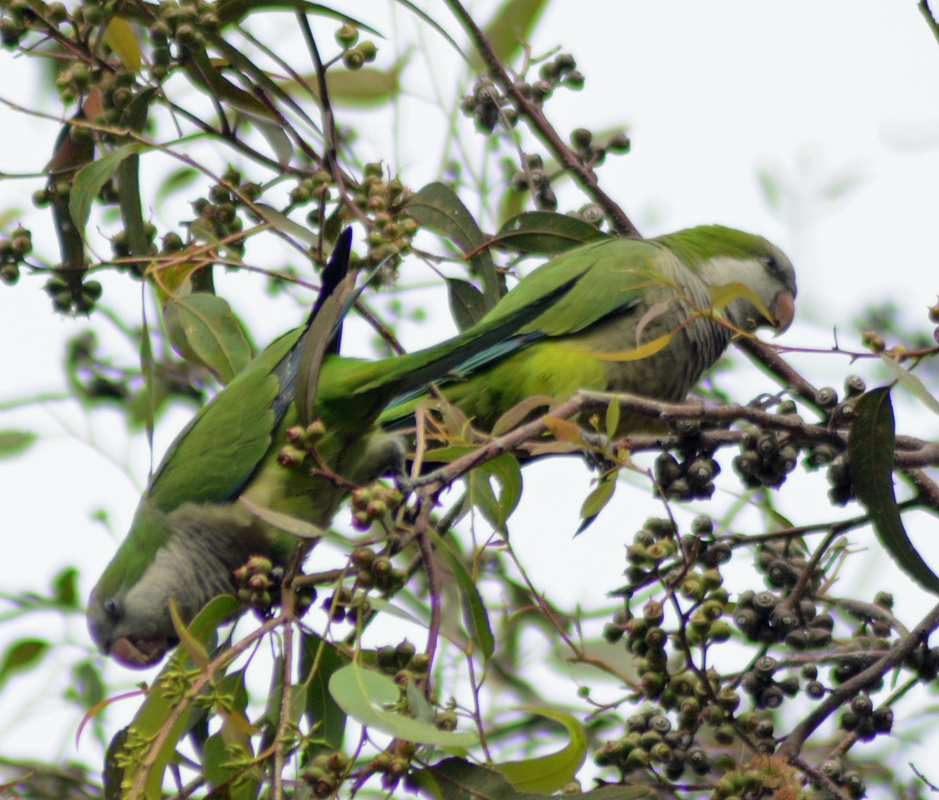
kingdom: Animalia
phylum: Chordata
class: Aves
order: Psittaciformes
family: Psittacidae
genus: Myiopsitta
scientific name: Myiopsitta monachus
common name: Monk parakeet
